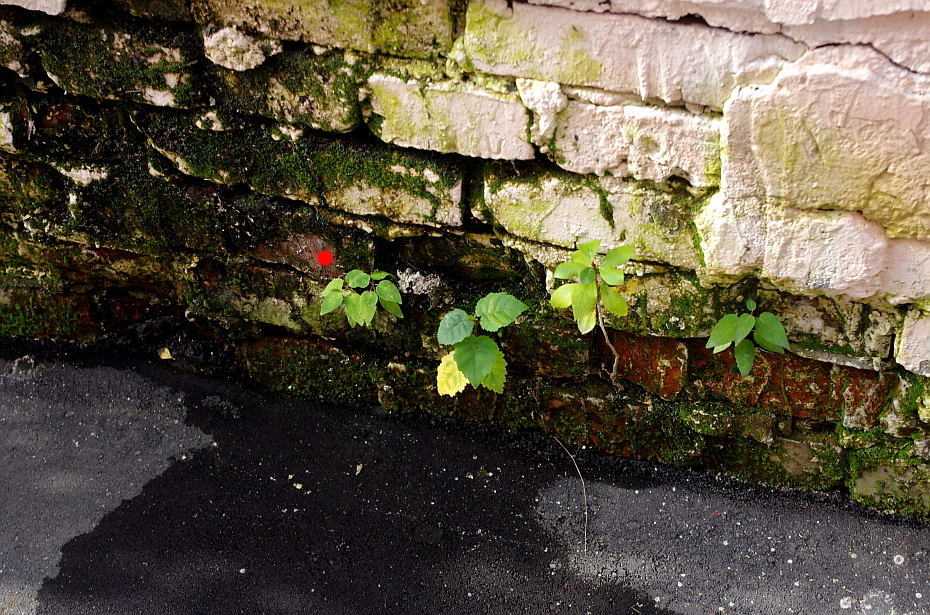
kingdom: Plantae
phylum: Tracheophyta
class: Magnoliopsida
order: Malpighiales
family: Salicaceae
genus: Populus
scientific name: Populus tremula
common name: European aspen
